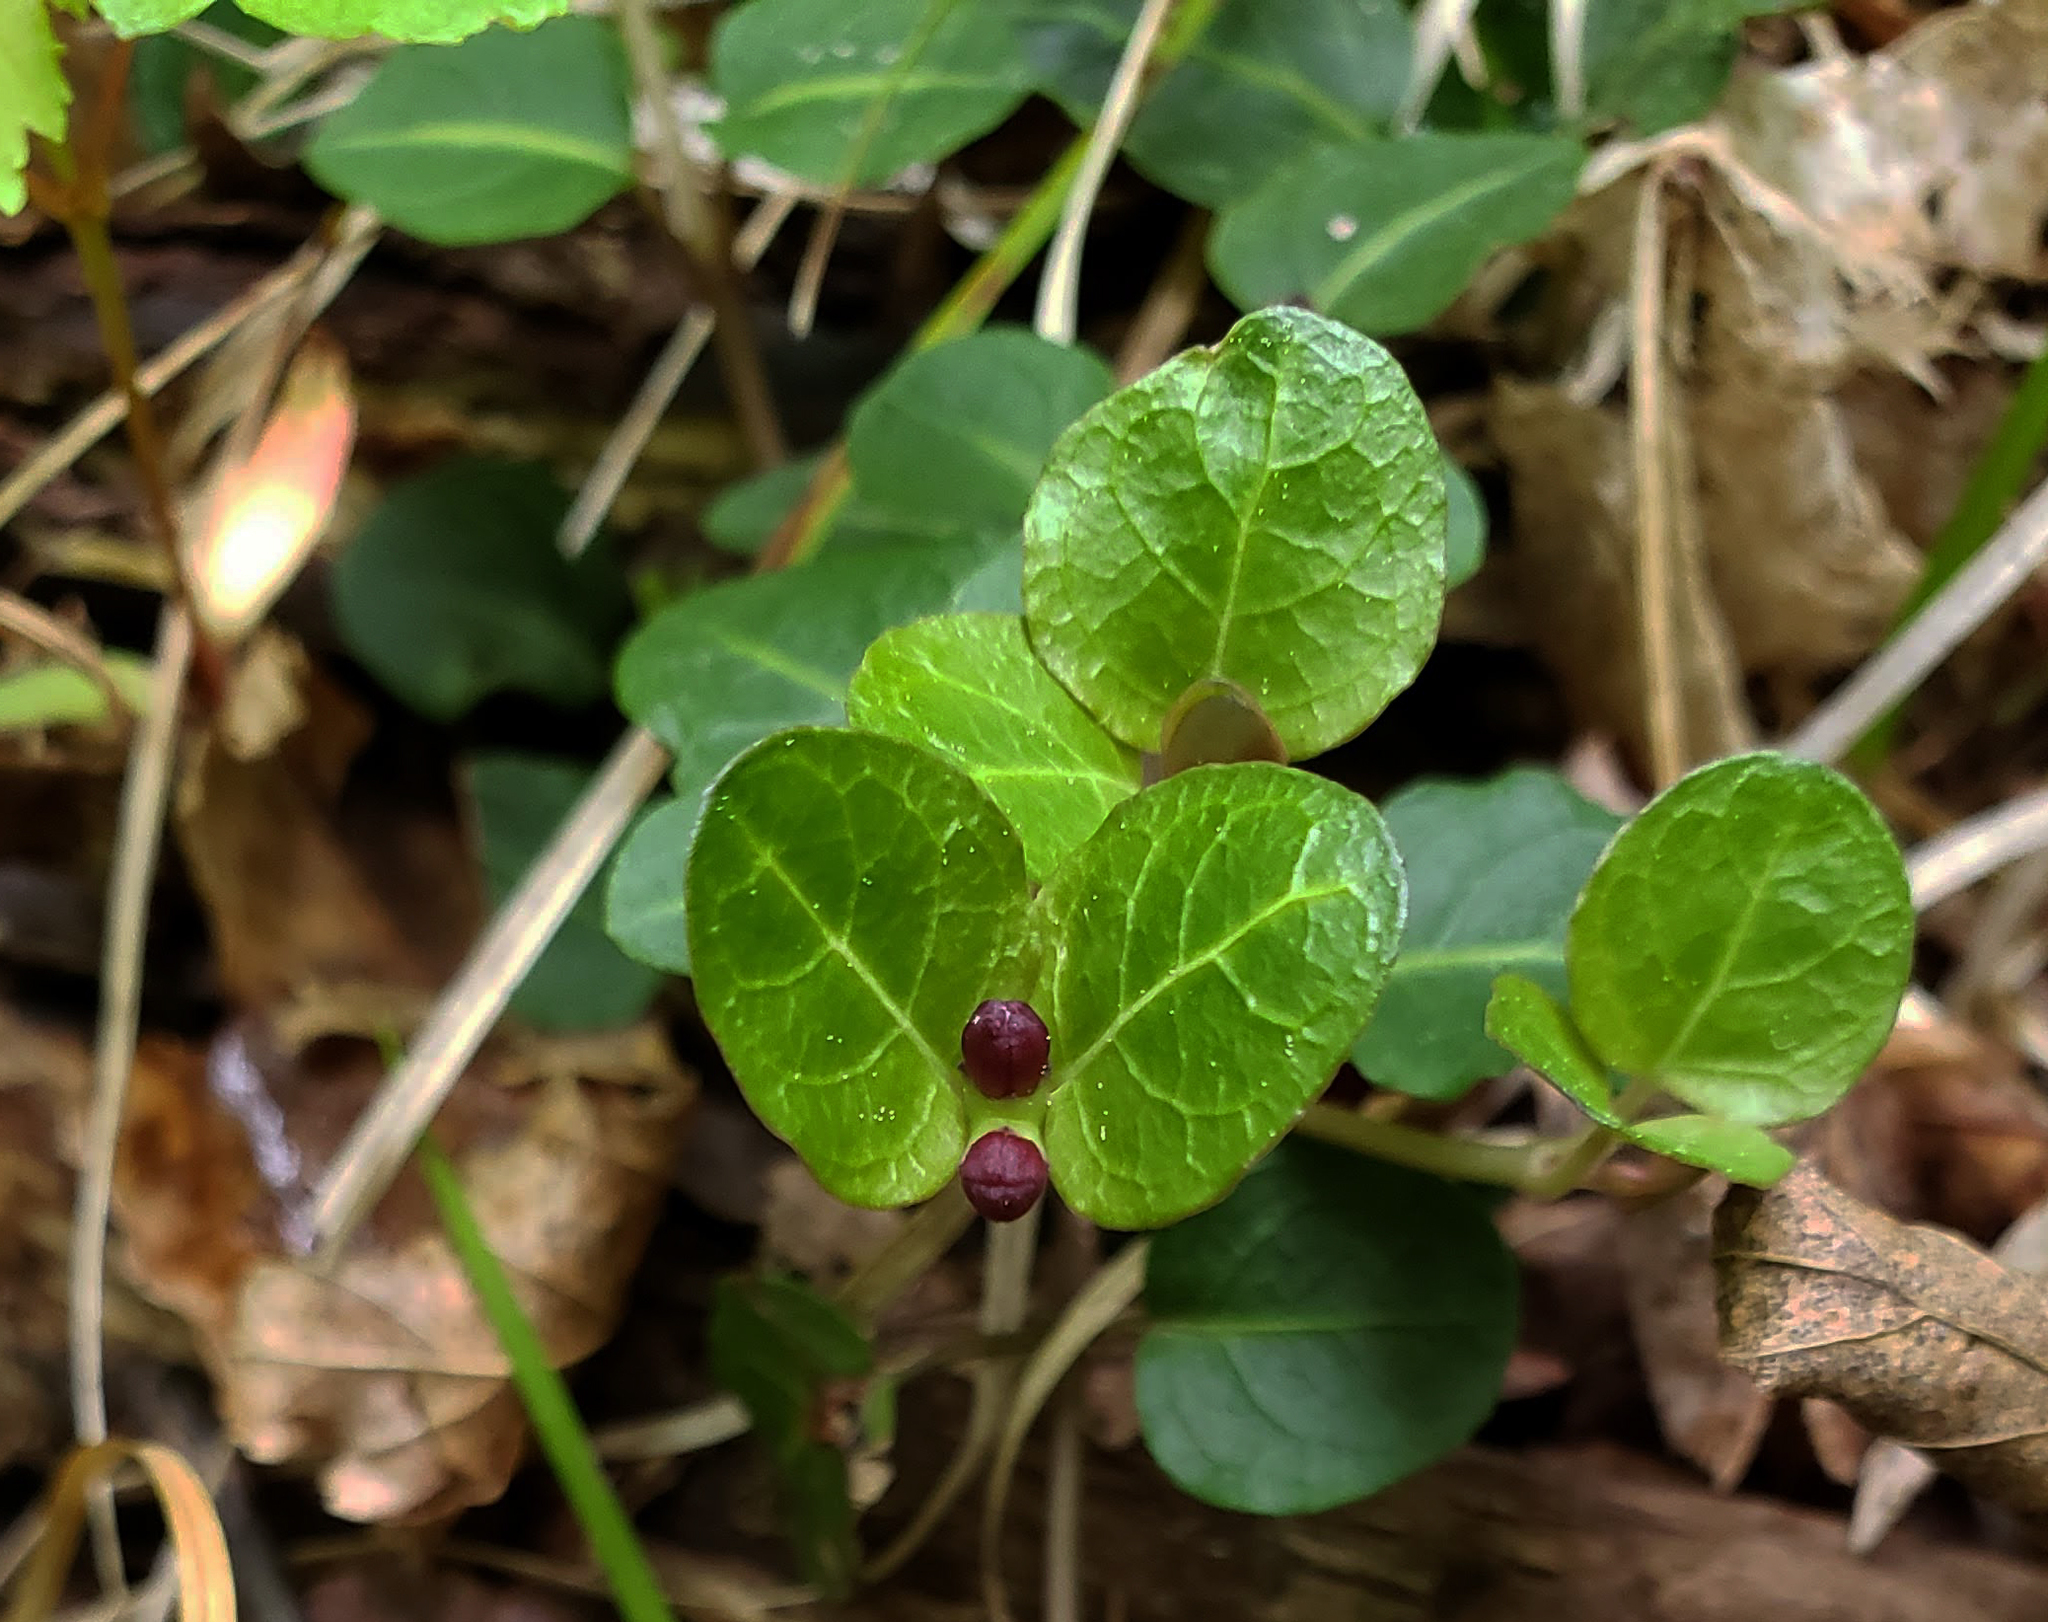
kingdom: Plantae
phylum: Tracheophyta
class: Magnoliopsida
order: Gentianales
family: Rubiaceae
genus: Mitchella
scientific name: Mitchella repens
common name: Partridge-berry
